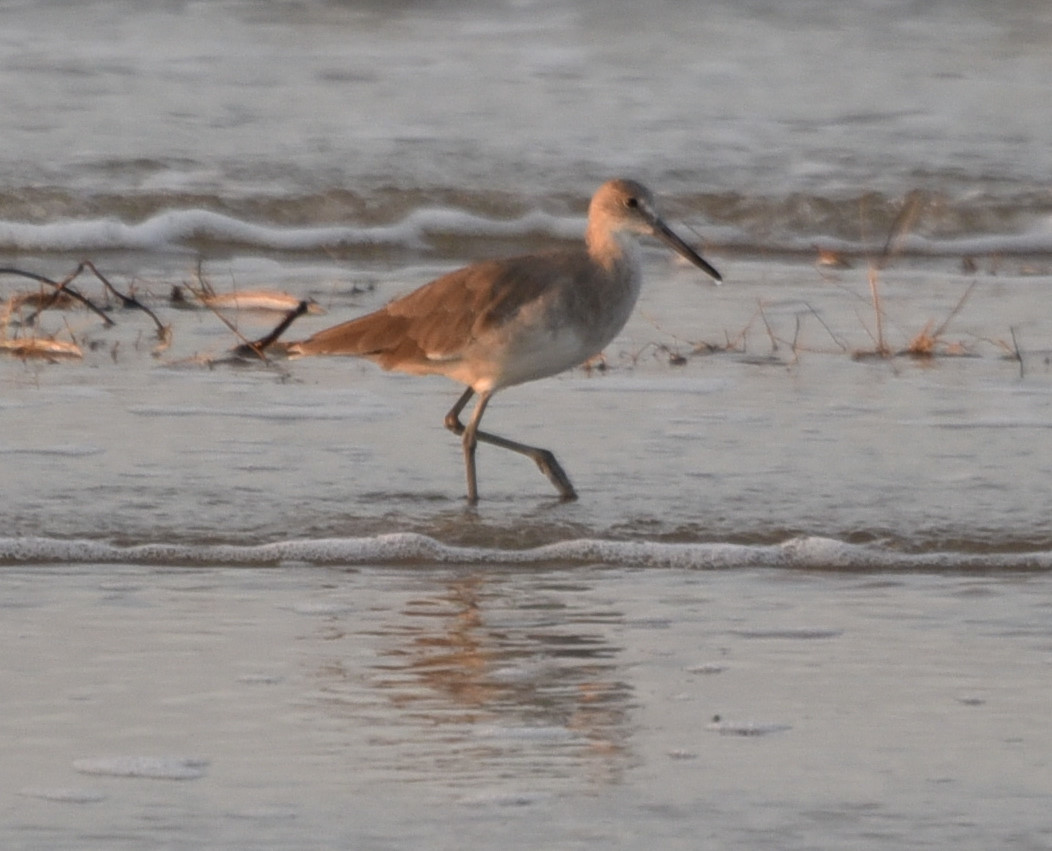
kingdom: Animalia
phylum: Chordata
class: Aves
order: Charadriiformes
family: Scolopacidae
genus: Tringa
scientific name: Tringa semipalmata
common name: Willet
